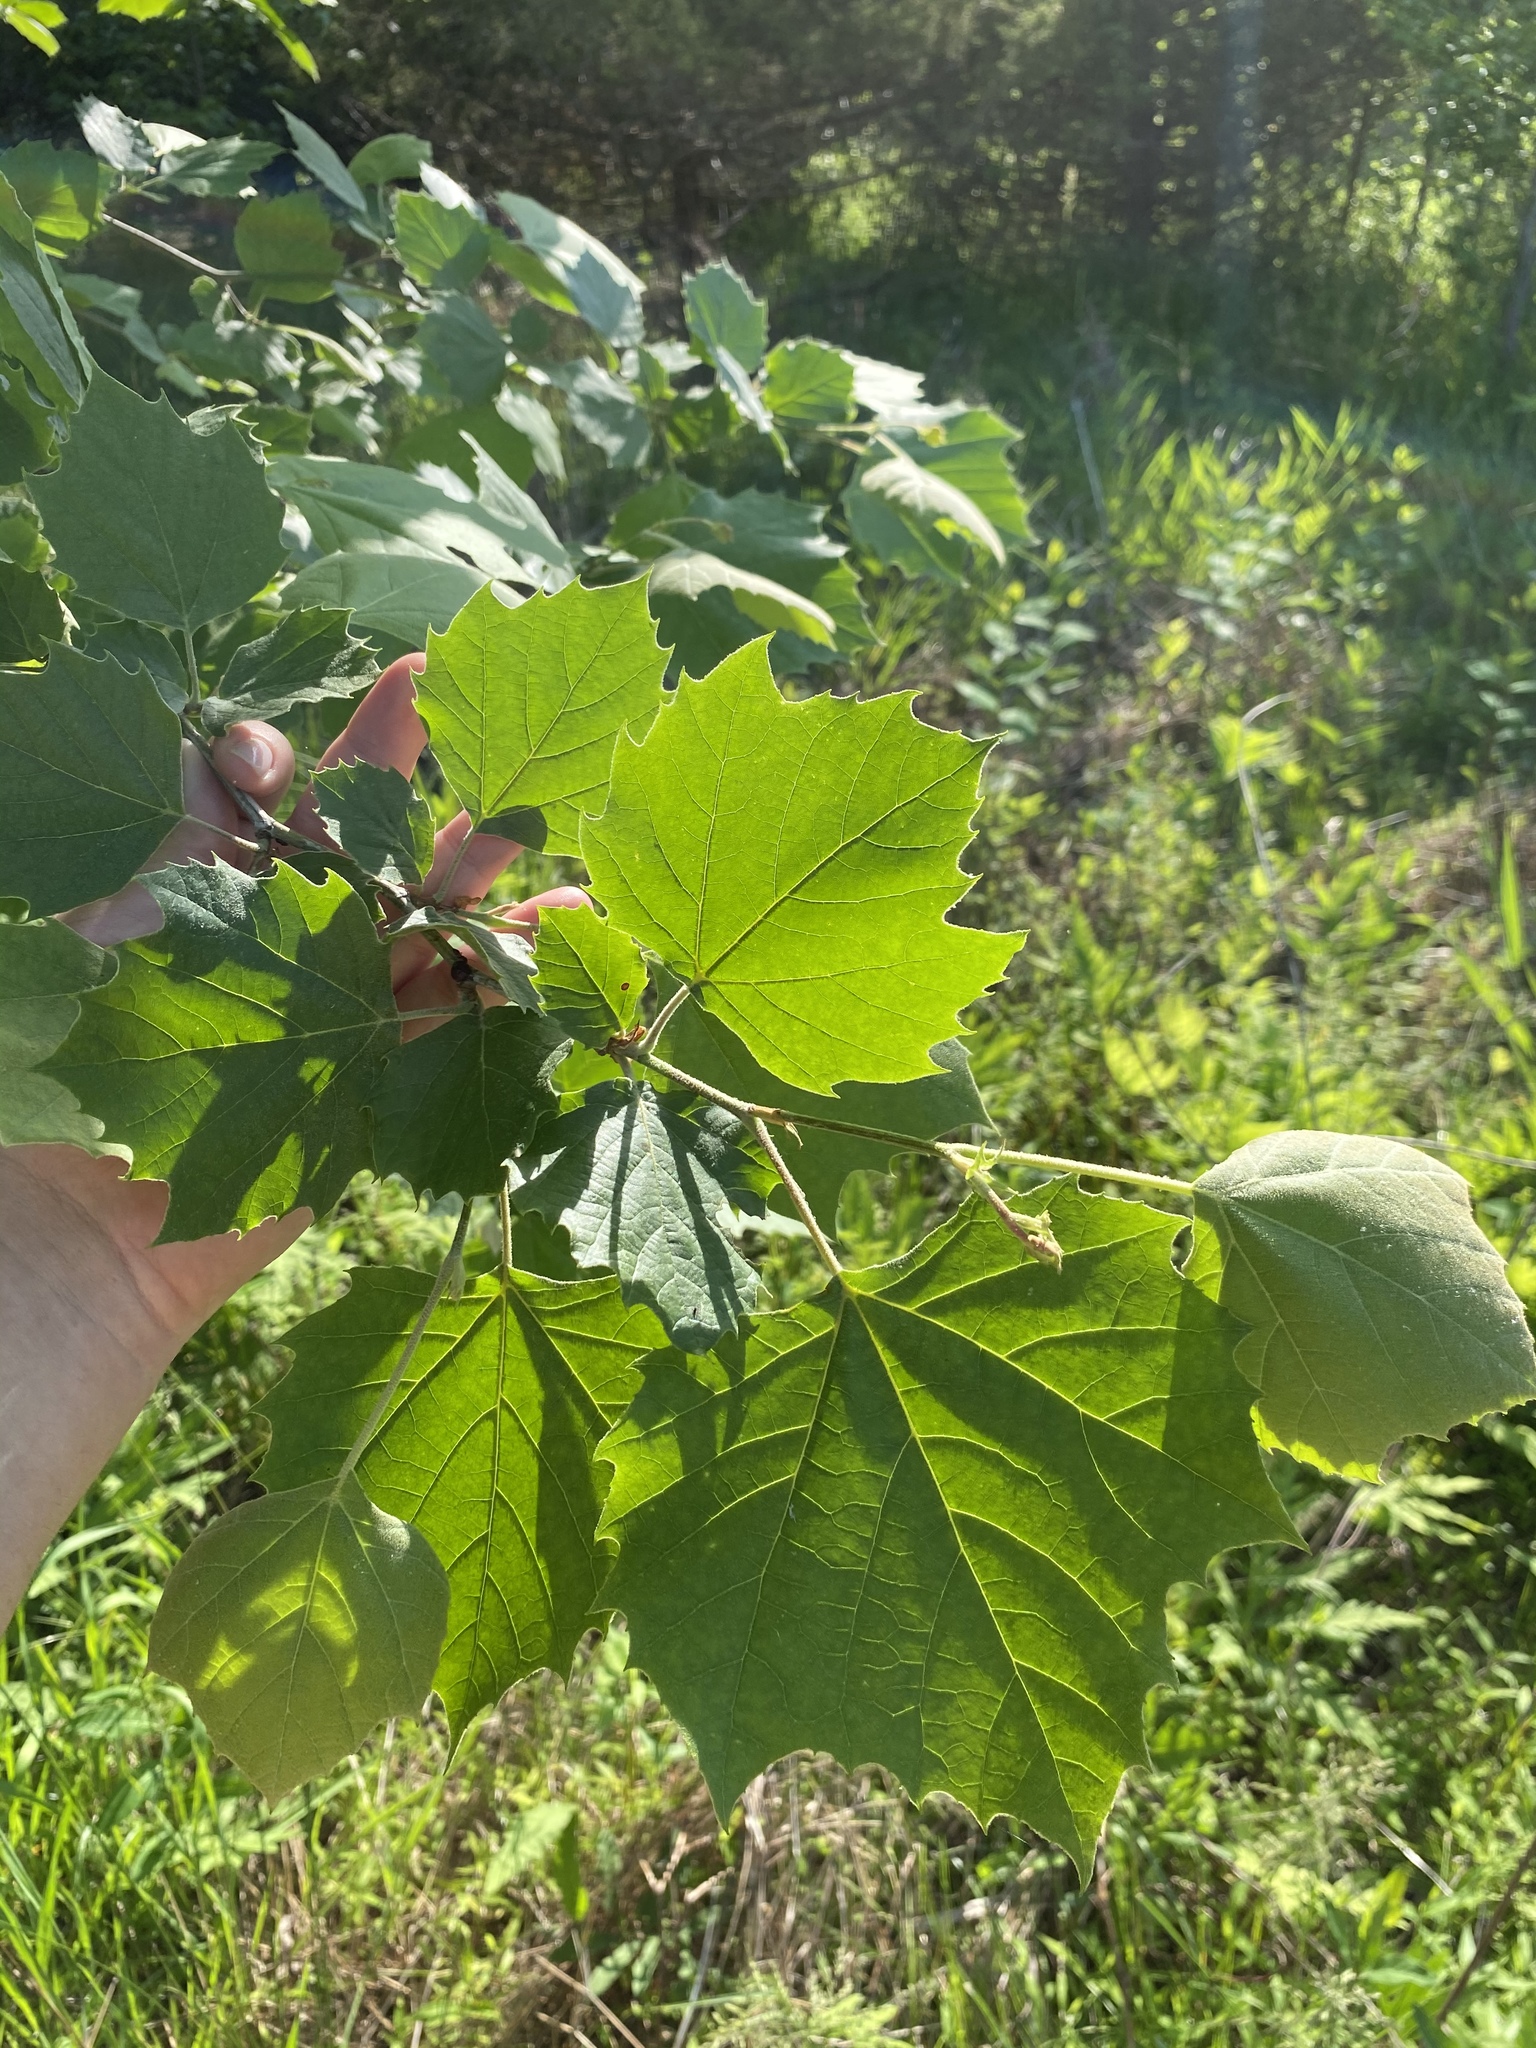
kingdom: Plantae
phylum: Tracheophyta
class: Magnoliopsida
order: Proteales
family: Platanaceae
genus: Platanus
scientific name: Platanus occidentalis
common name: American sycamore
